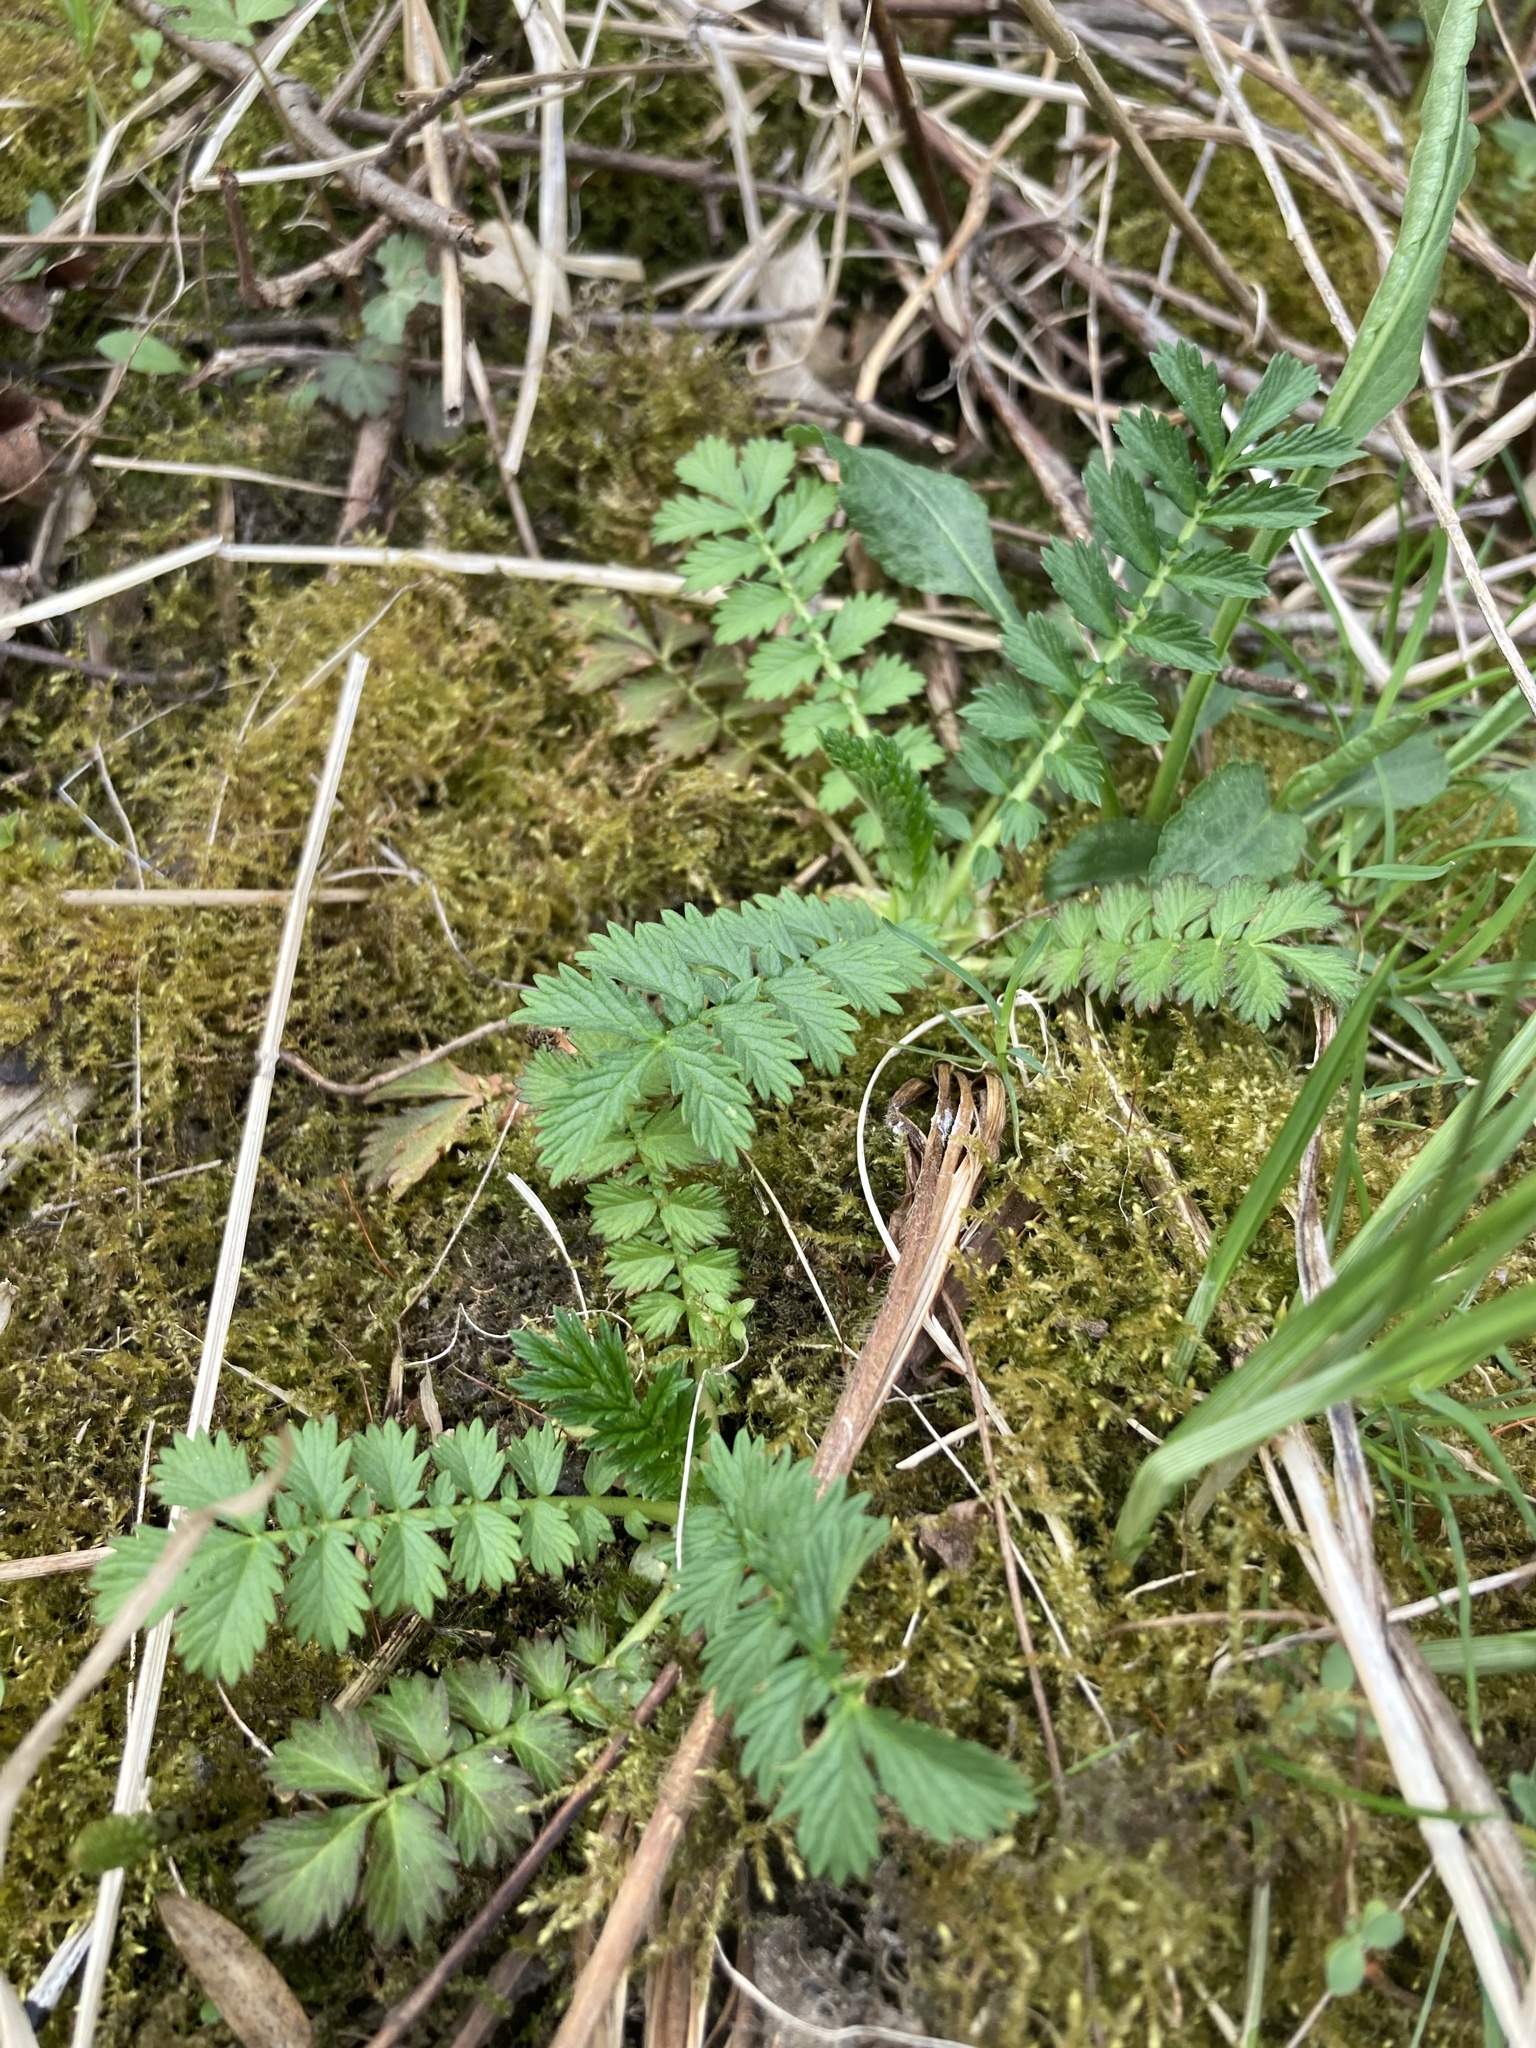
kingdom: Plantae
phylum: Tracheophyta
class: Magnoliopsida
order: Rosales
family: Rosaceae
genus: Agrimonia
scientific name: Agrimonia parviflora
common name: Harvest-lice
